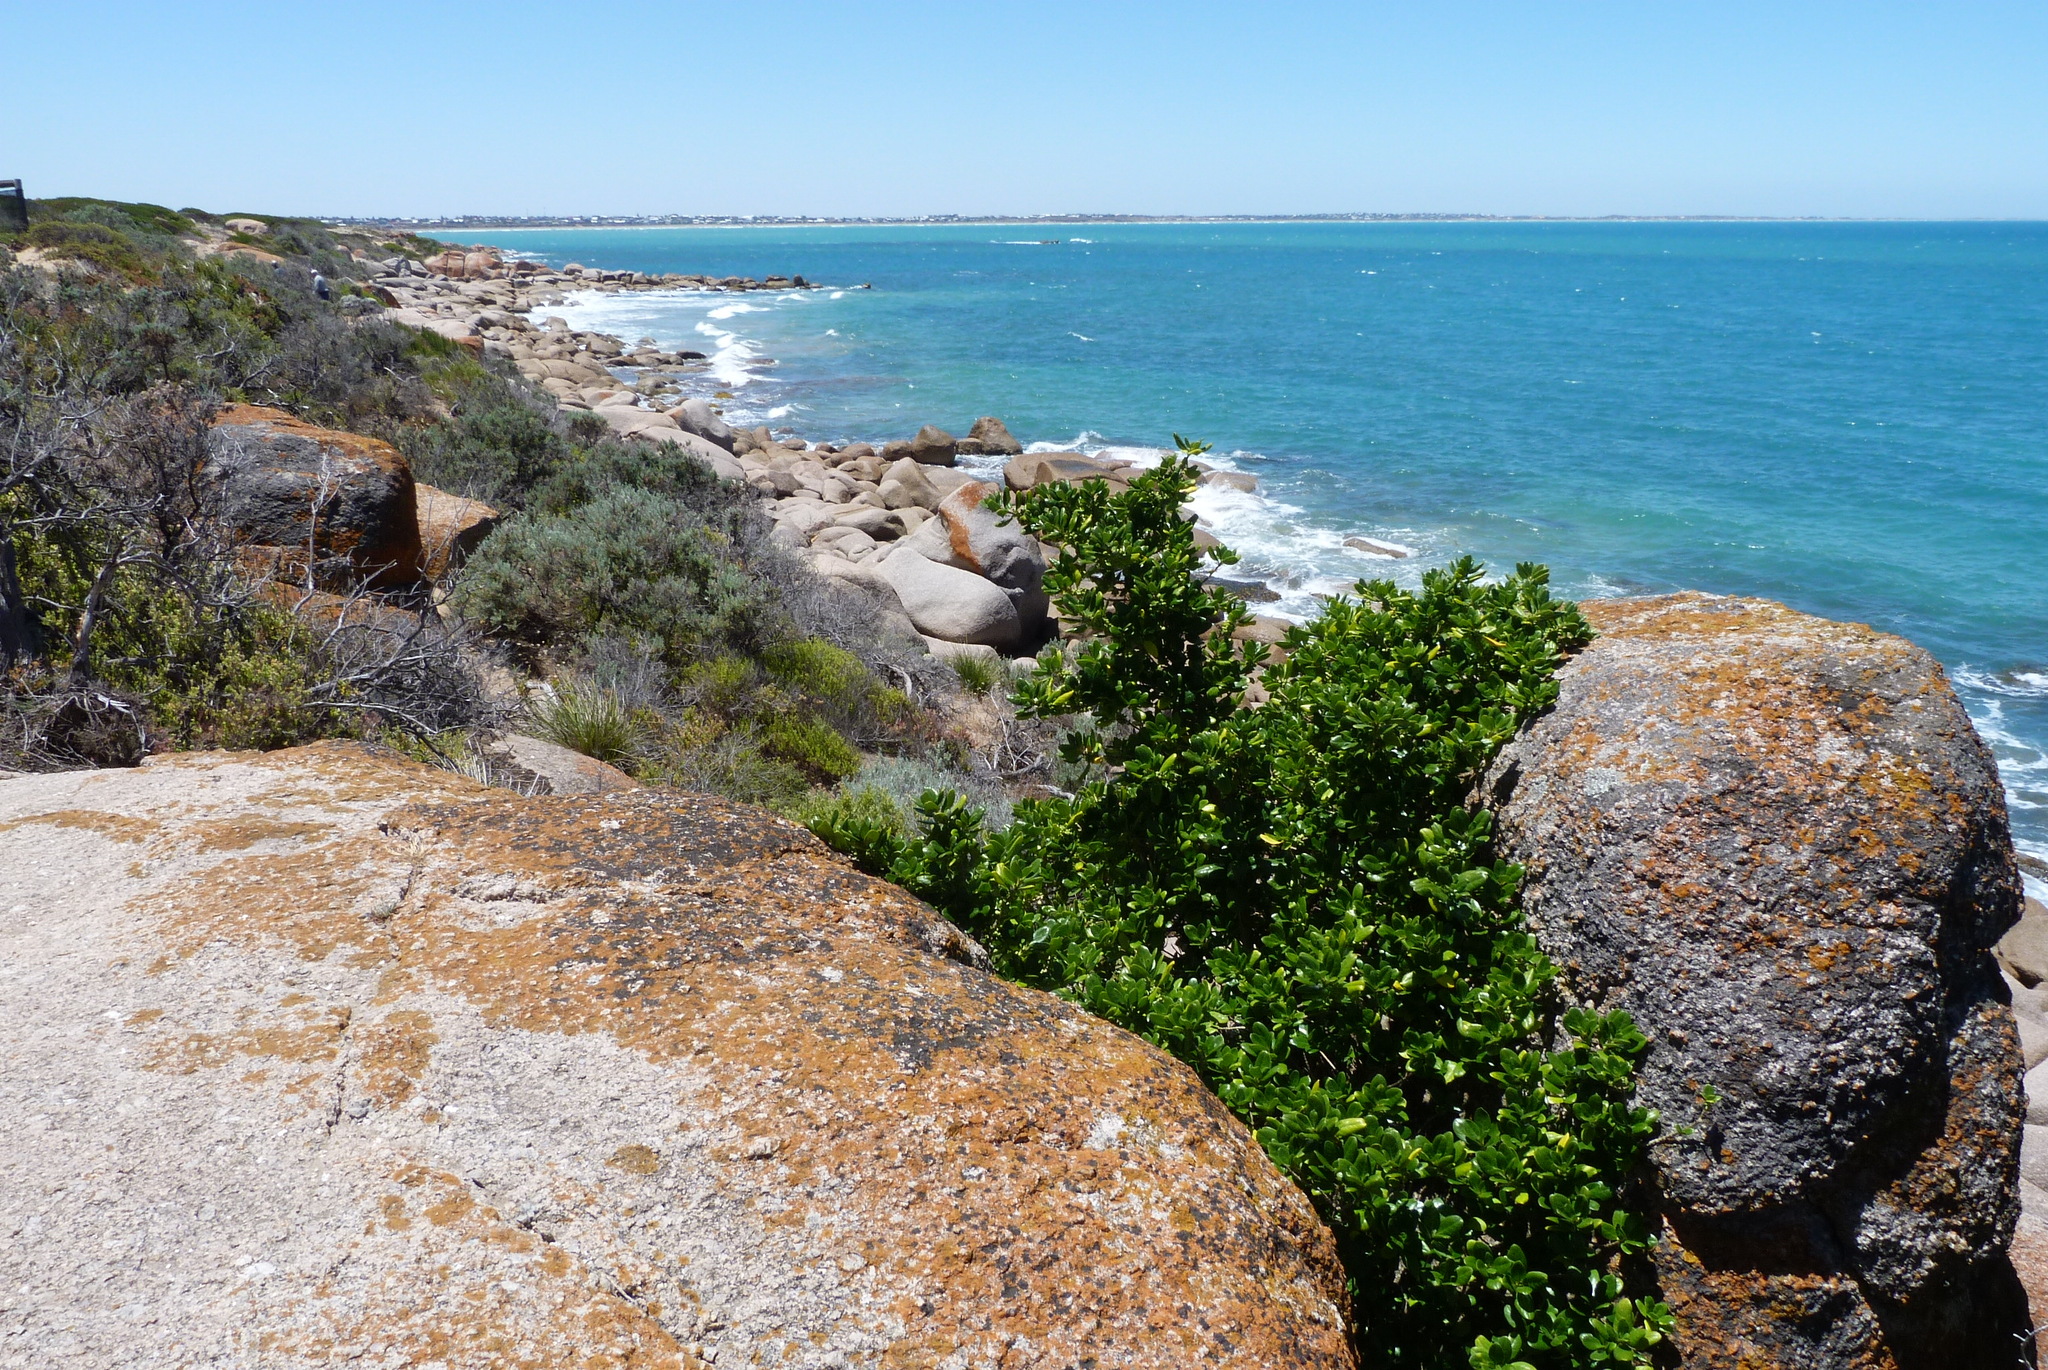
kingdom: Plantae
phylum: Tracheophyta
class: Magnoliopsida
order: Gentianales
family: Rubiaceae
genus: Coprosma
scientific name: Coprosma repens
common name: Tree bedstraw
